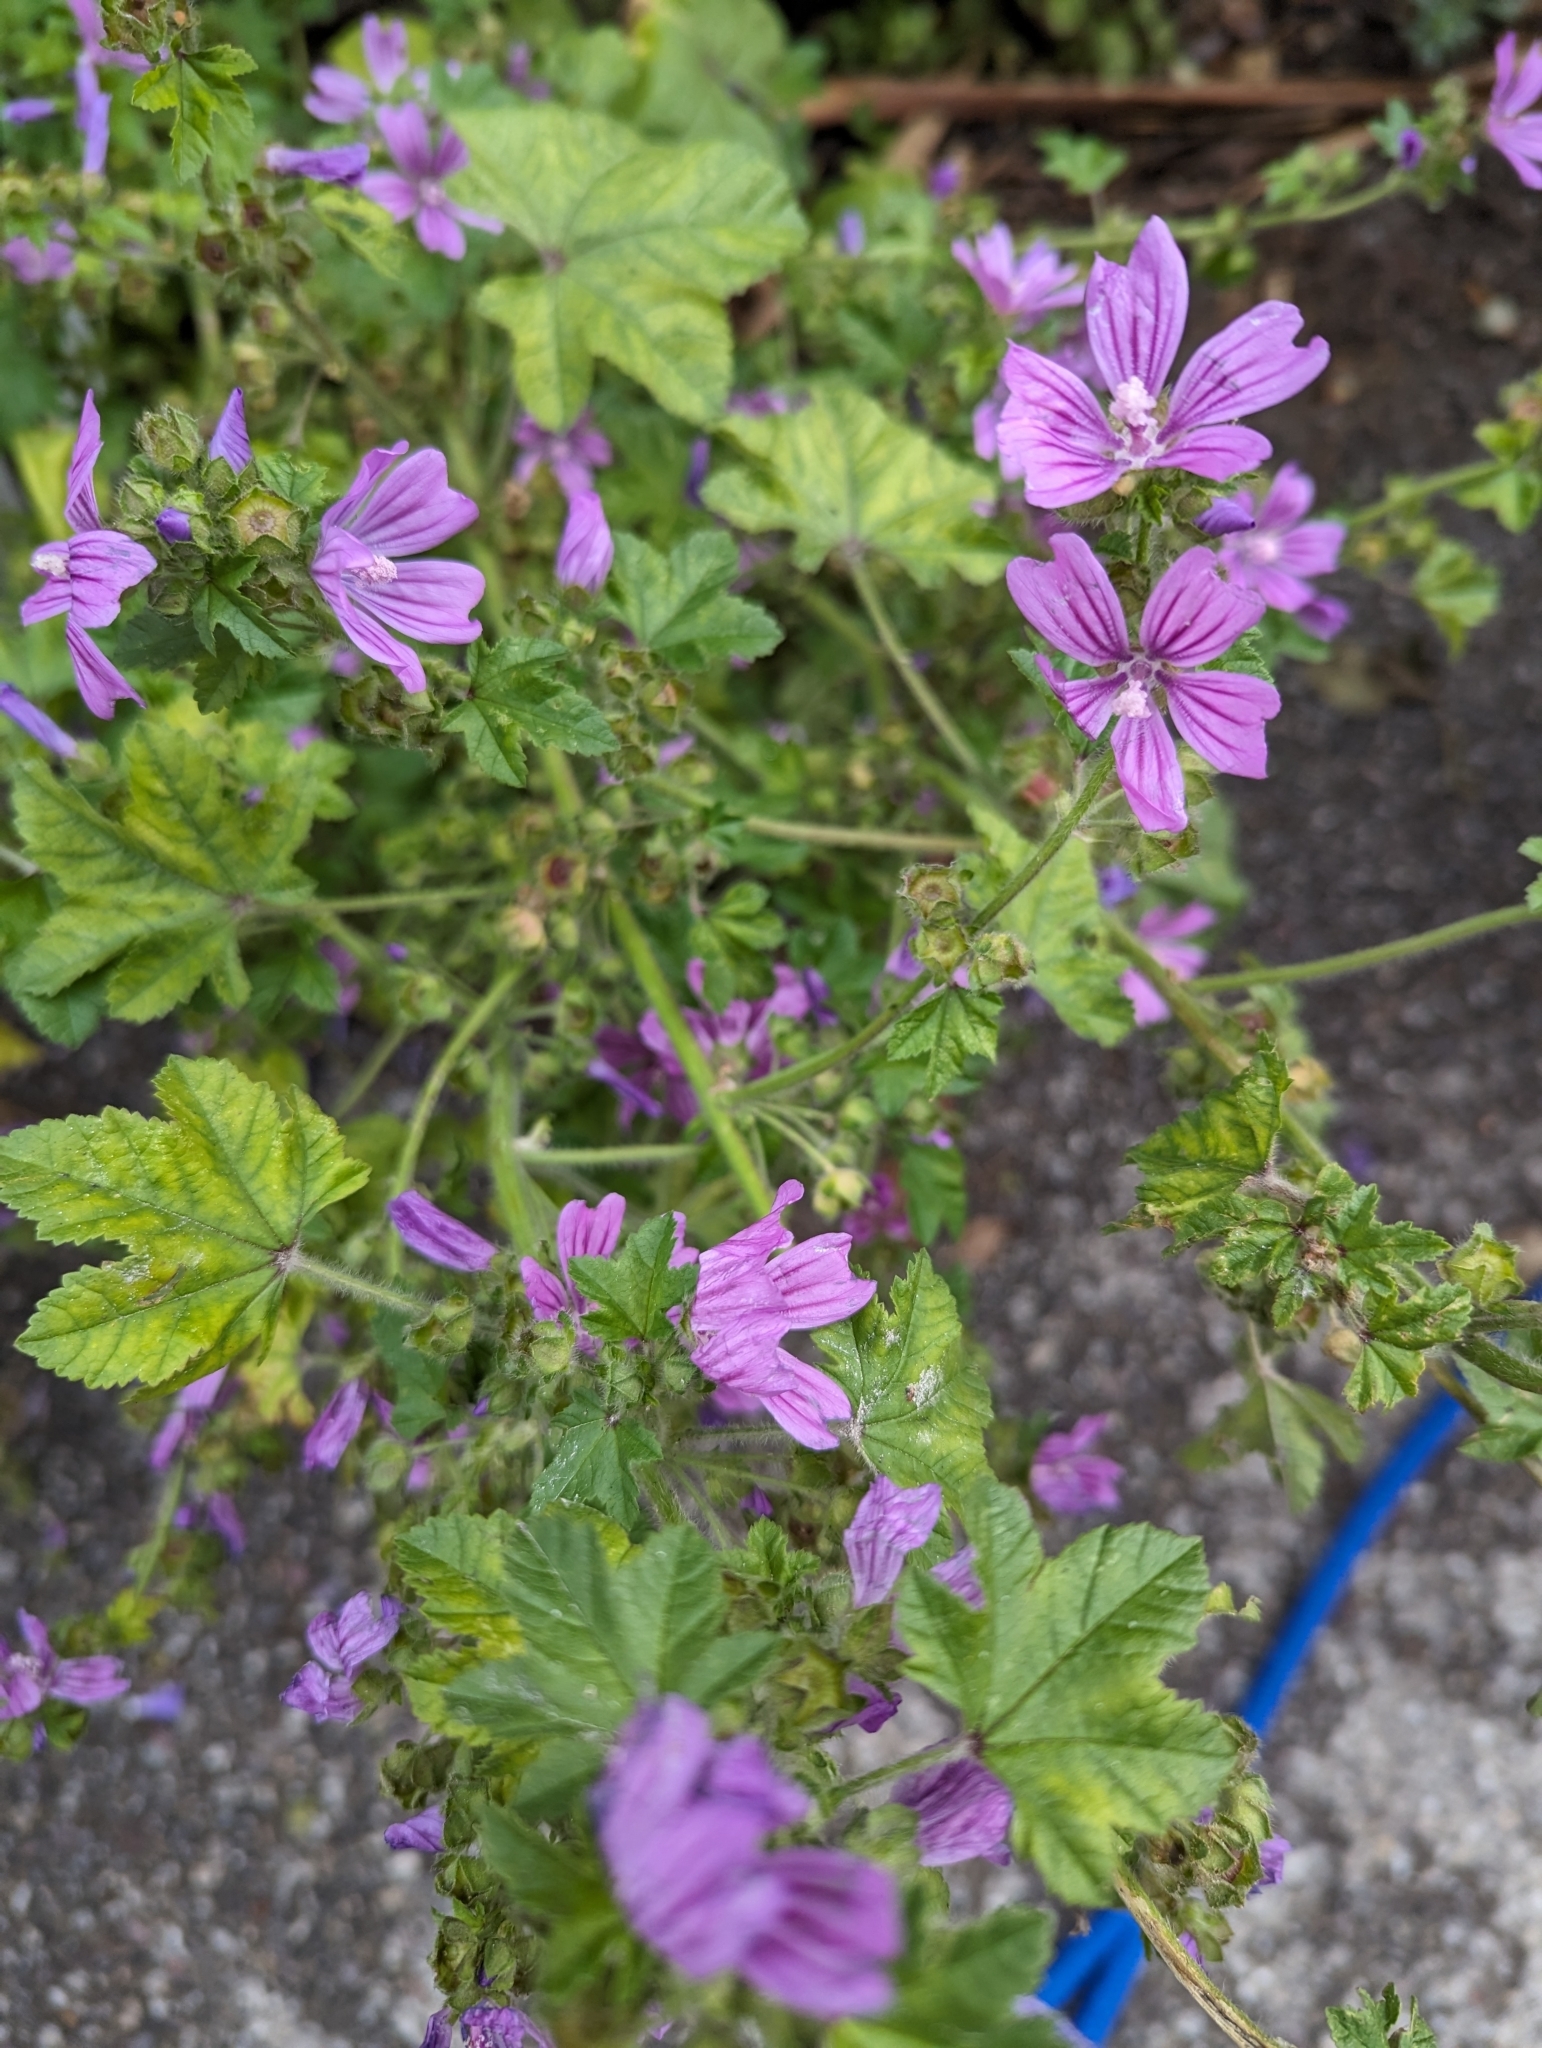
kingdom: Plantae
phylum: Tracheophyta
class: Magnoliopsida
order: Malvales
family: Malvaceae
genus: Malva
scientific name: Malva sylvestris
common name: Common mallow
